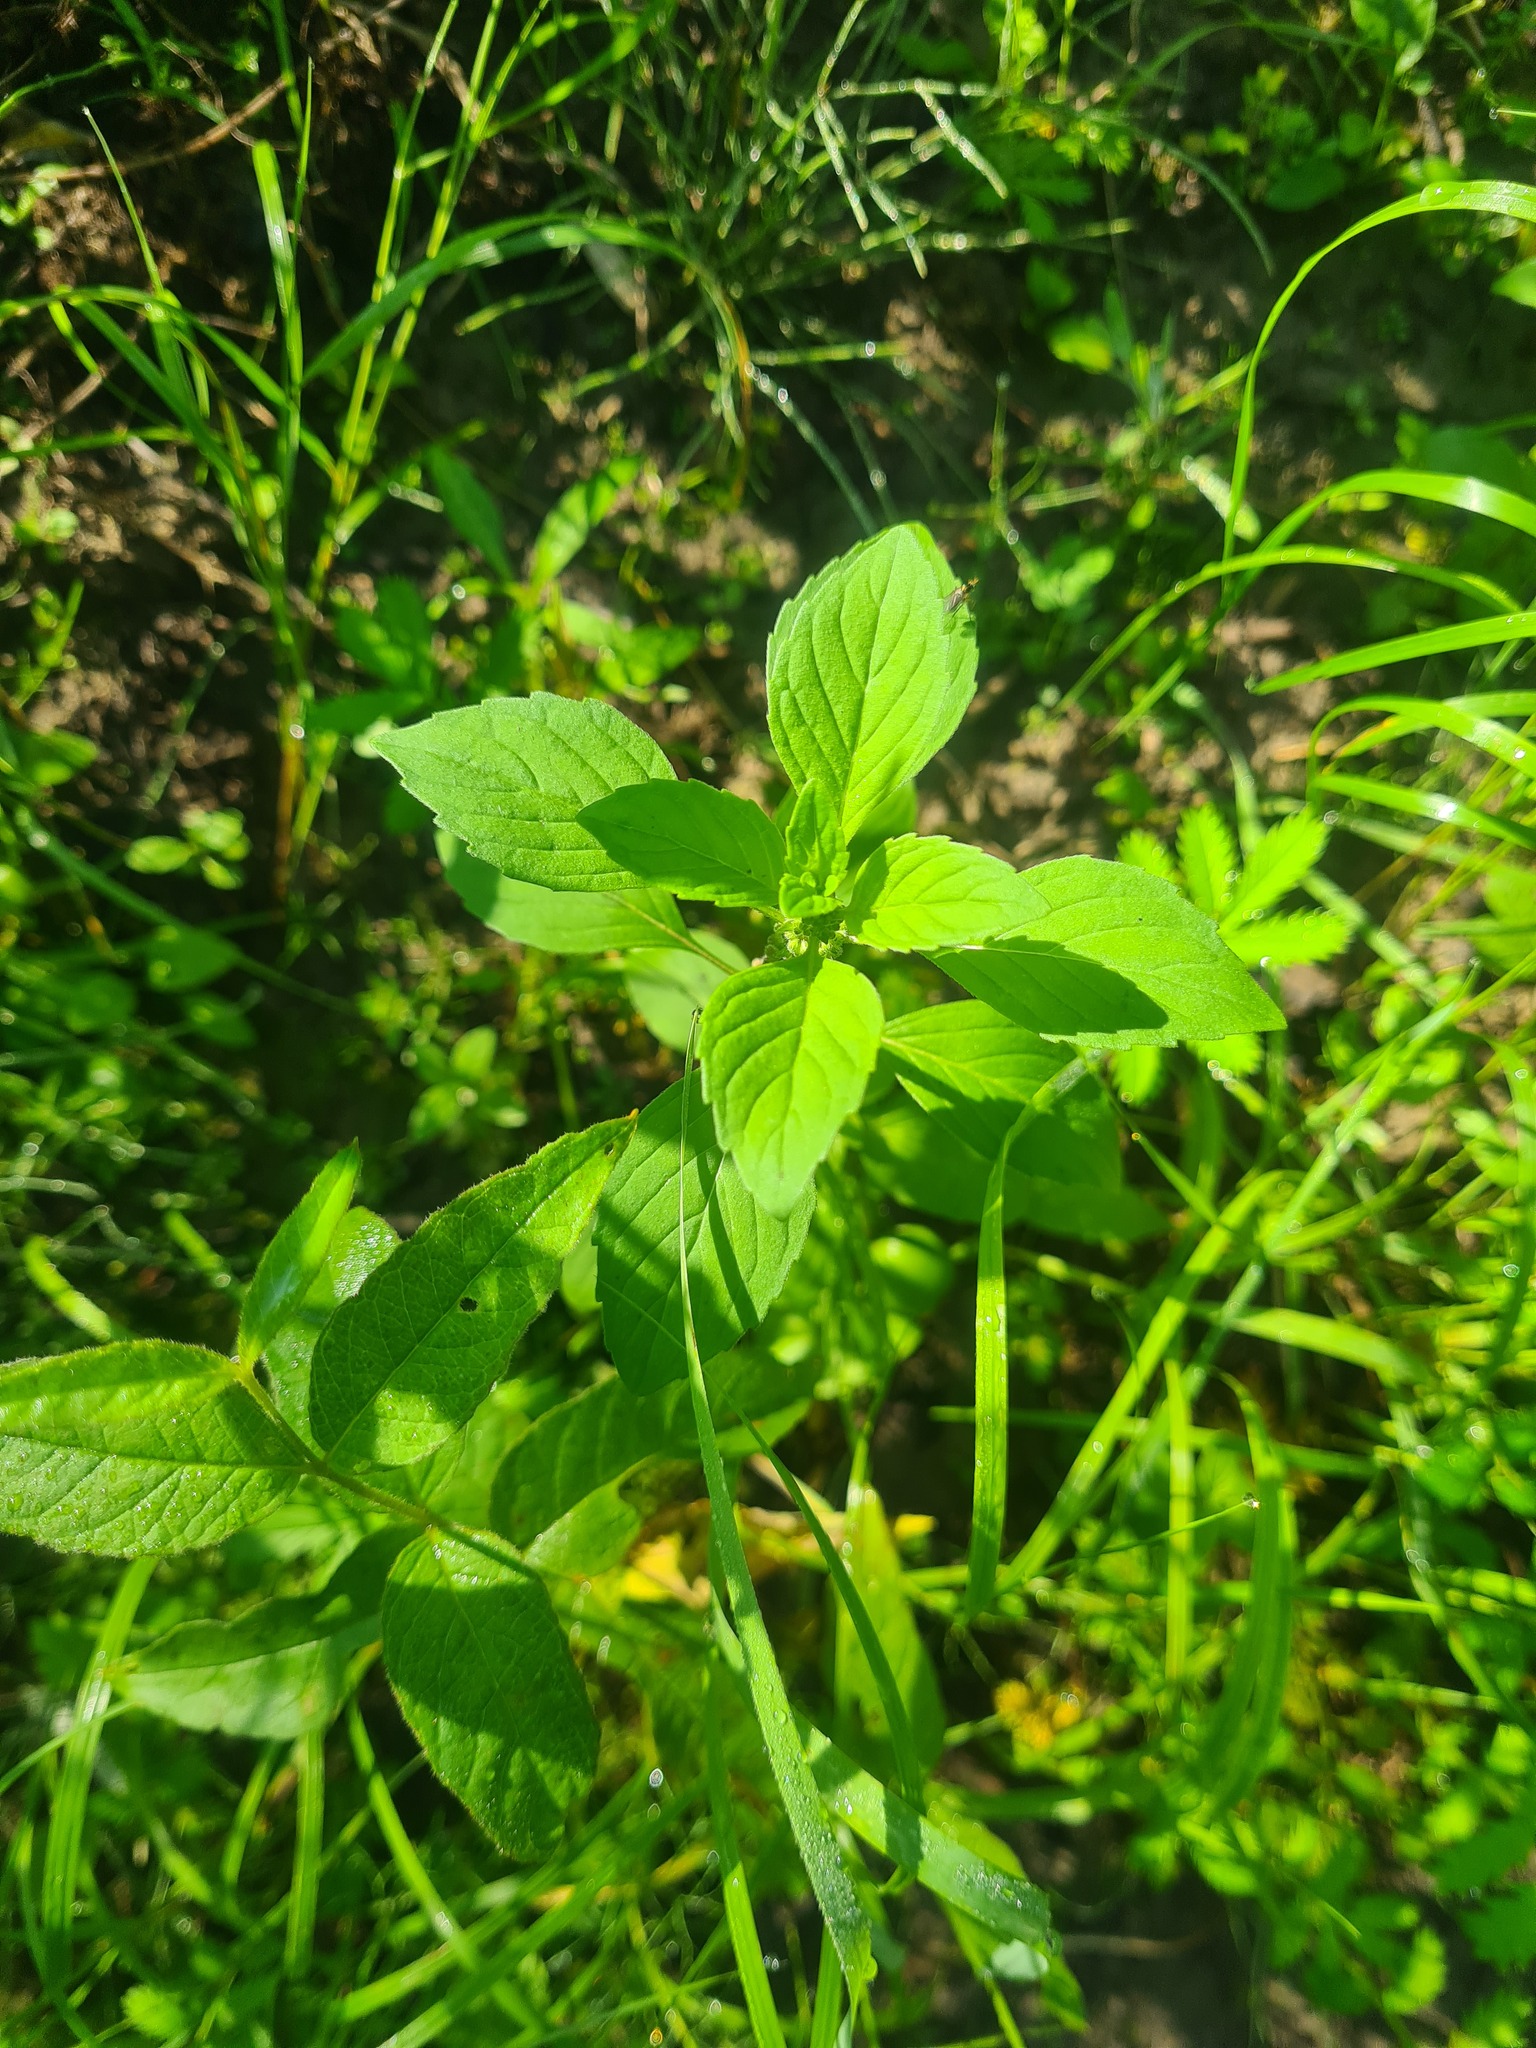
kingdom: Plantae
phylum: Tracheophyta
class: Magnoliopsida
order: Lamiales
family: Lamiaceae
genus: Mentha
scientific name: Mentha arvensis
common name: Corn mint
